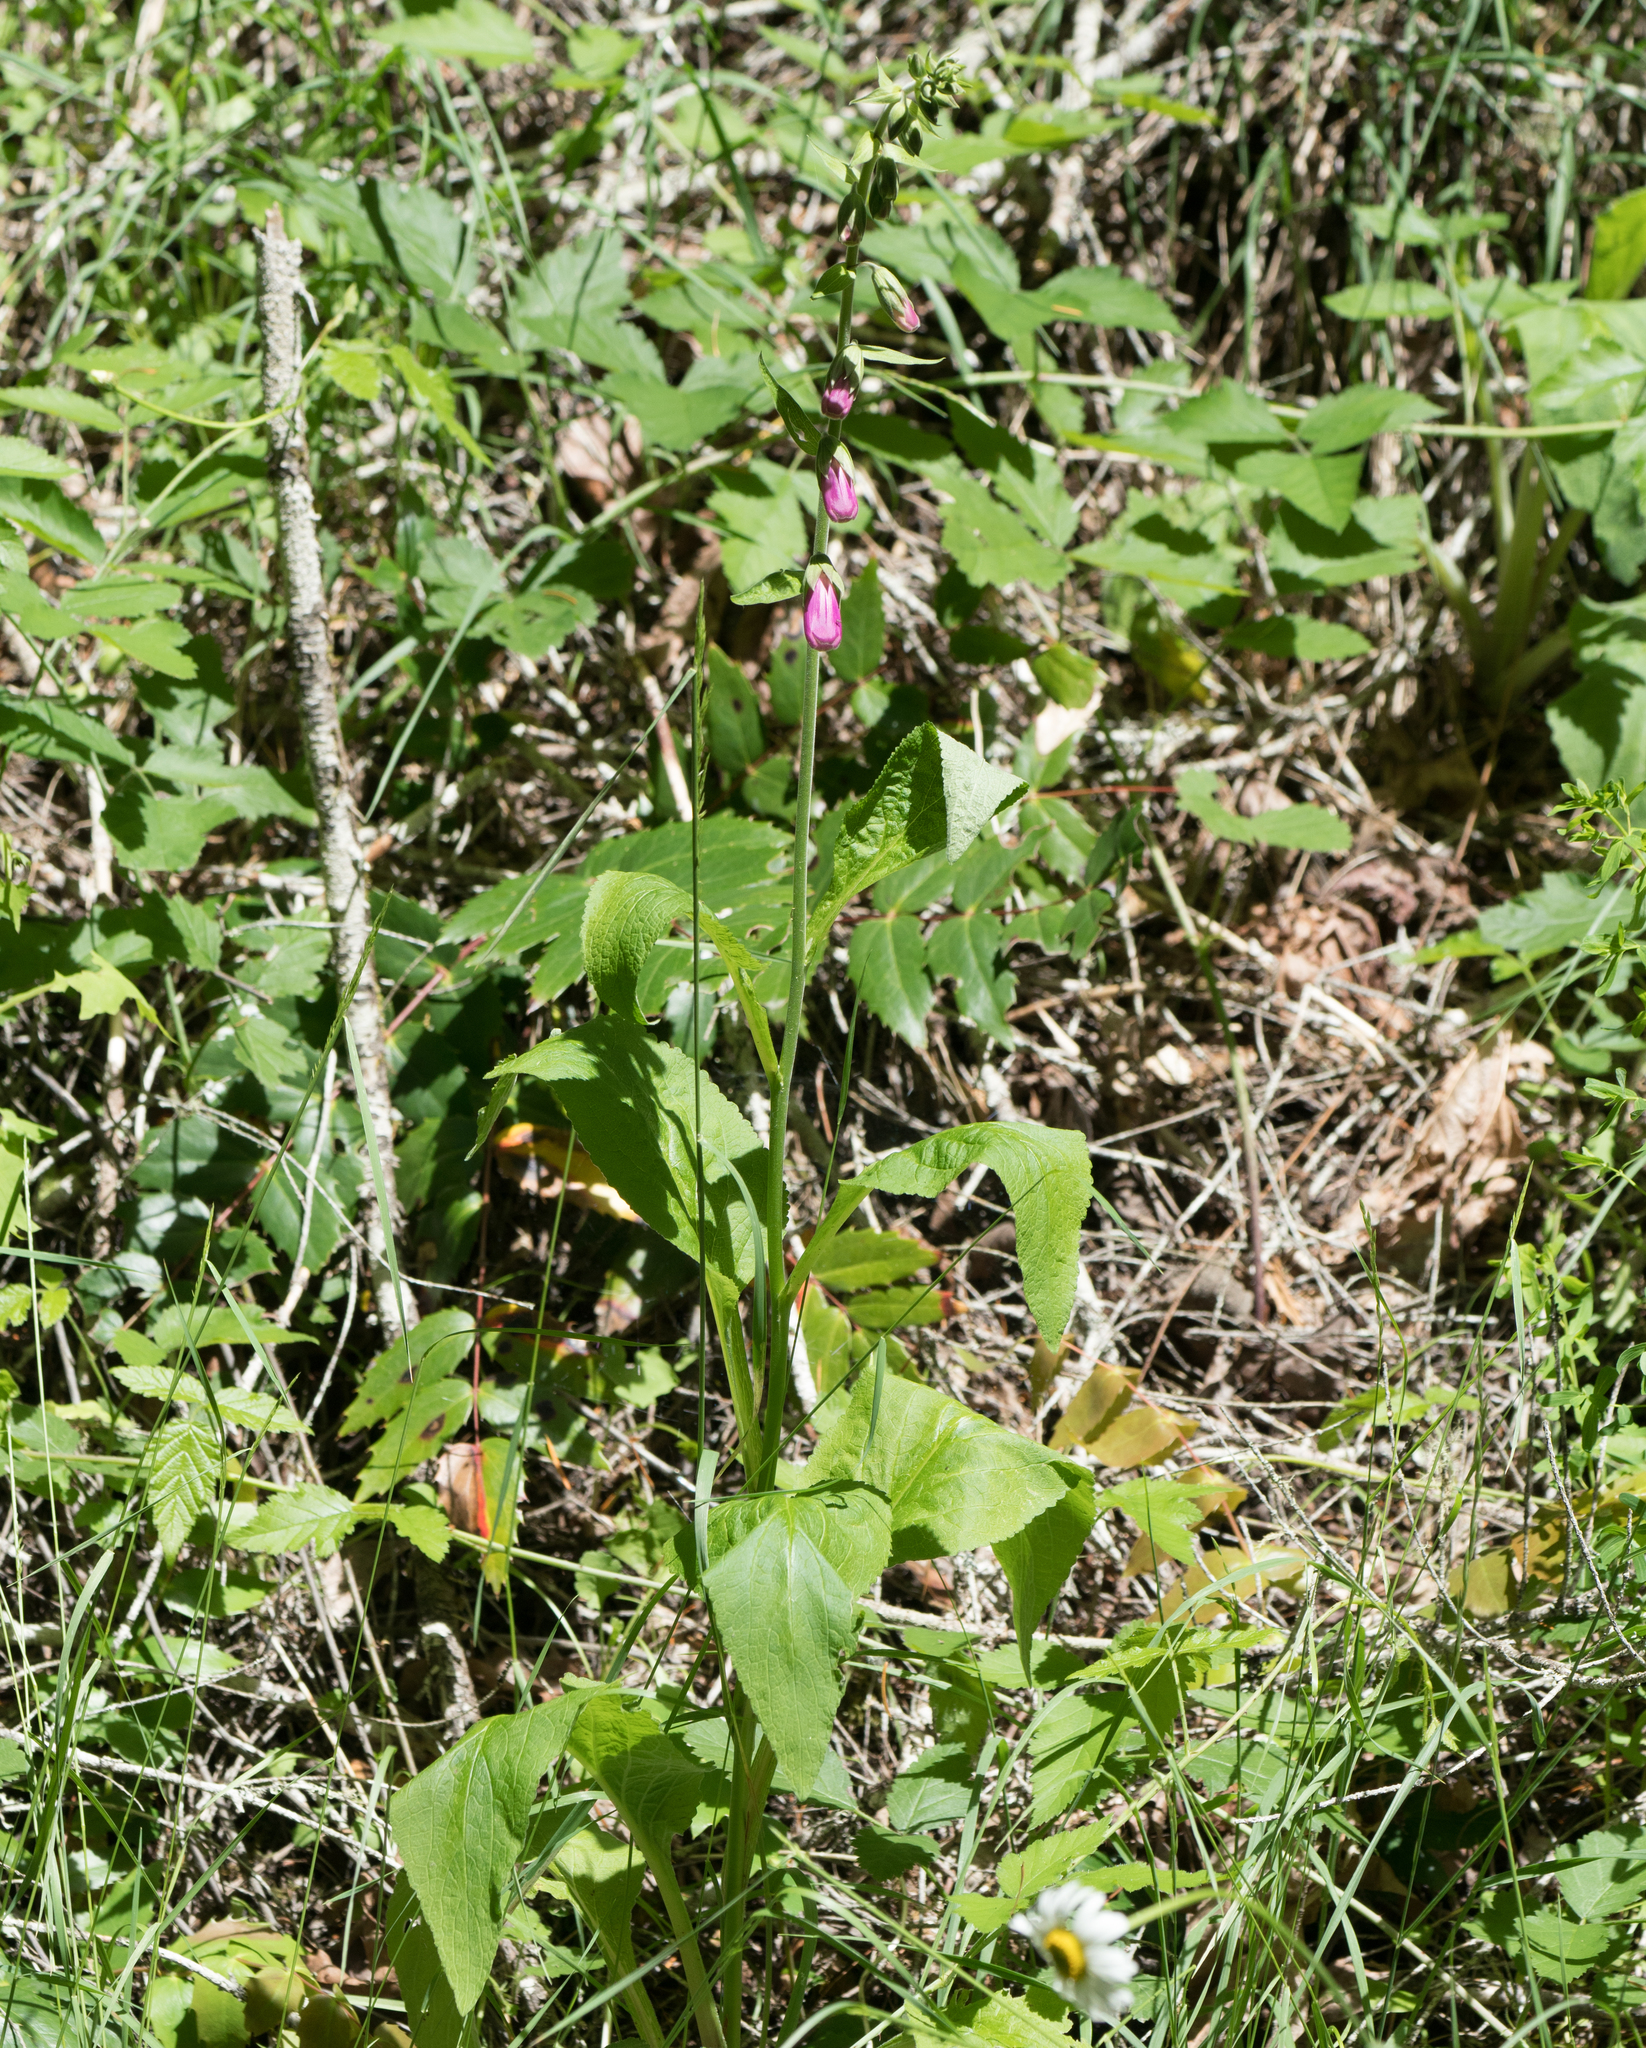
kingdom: Plantae
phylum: Tracheophyta
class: Magnoliopsida
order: Lamiales
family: Plantaginaceae
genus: Digitalis
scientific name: Digitalis purpurea
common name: Foxglove
